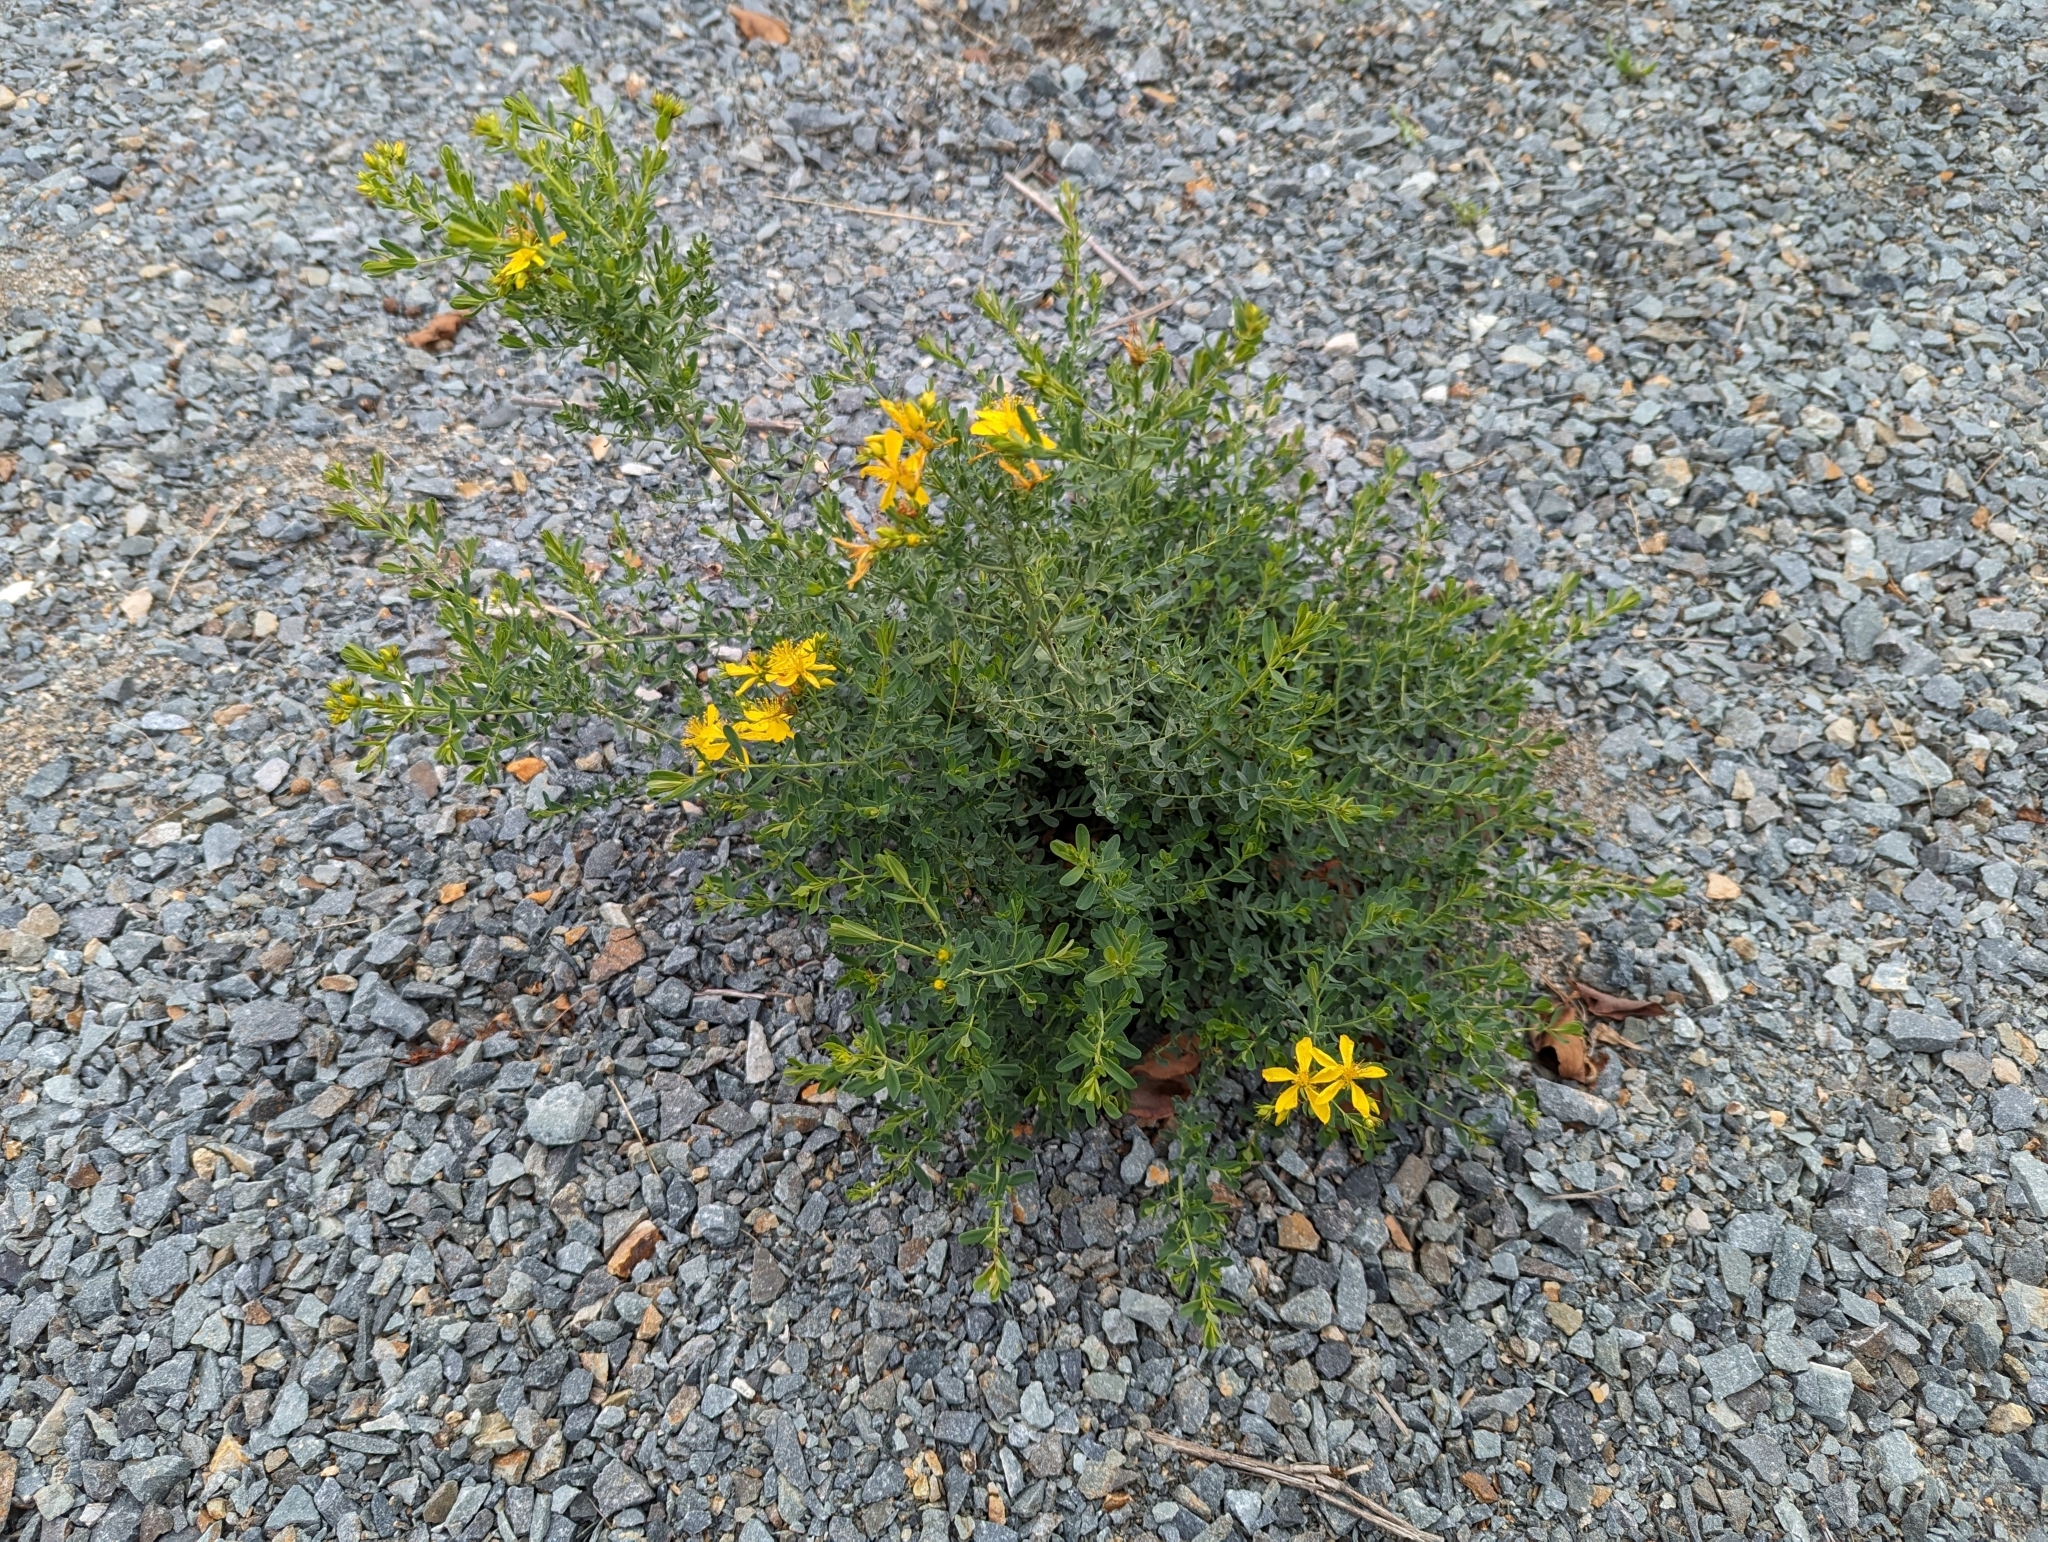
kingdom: Plantae
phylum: Tracheophyta
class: Magnoliopsida
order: Malpighiales
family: Hypericaceae
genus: Hypericum
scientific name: Hypericum perforatum
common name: Common st. johnswort
